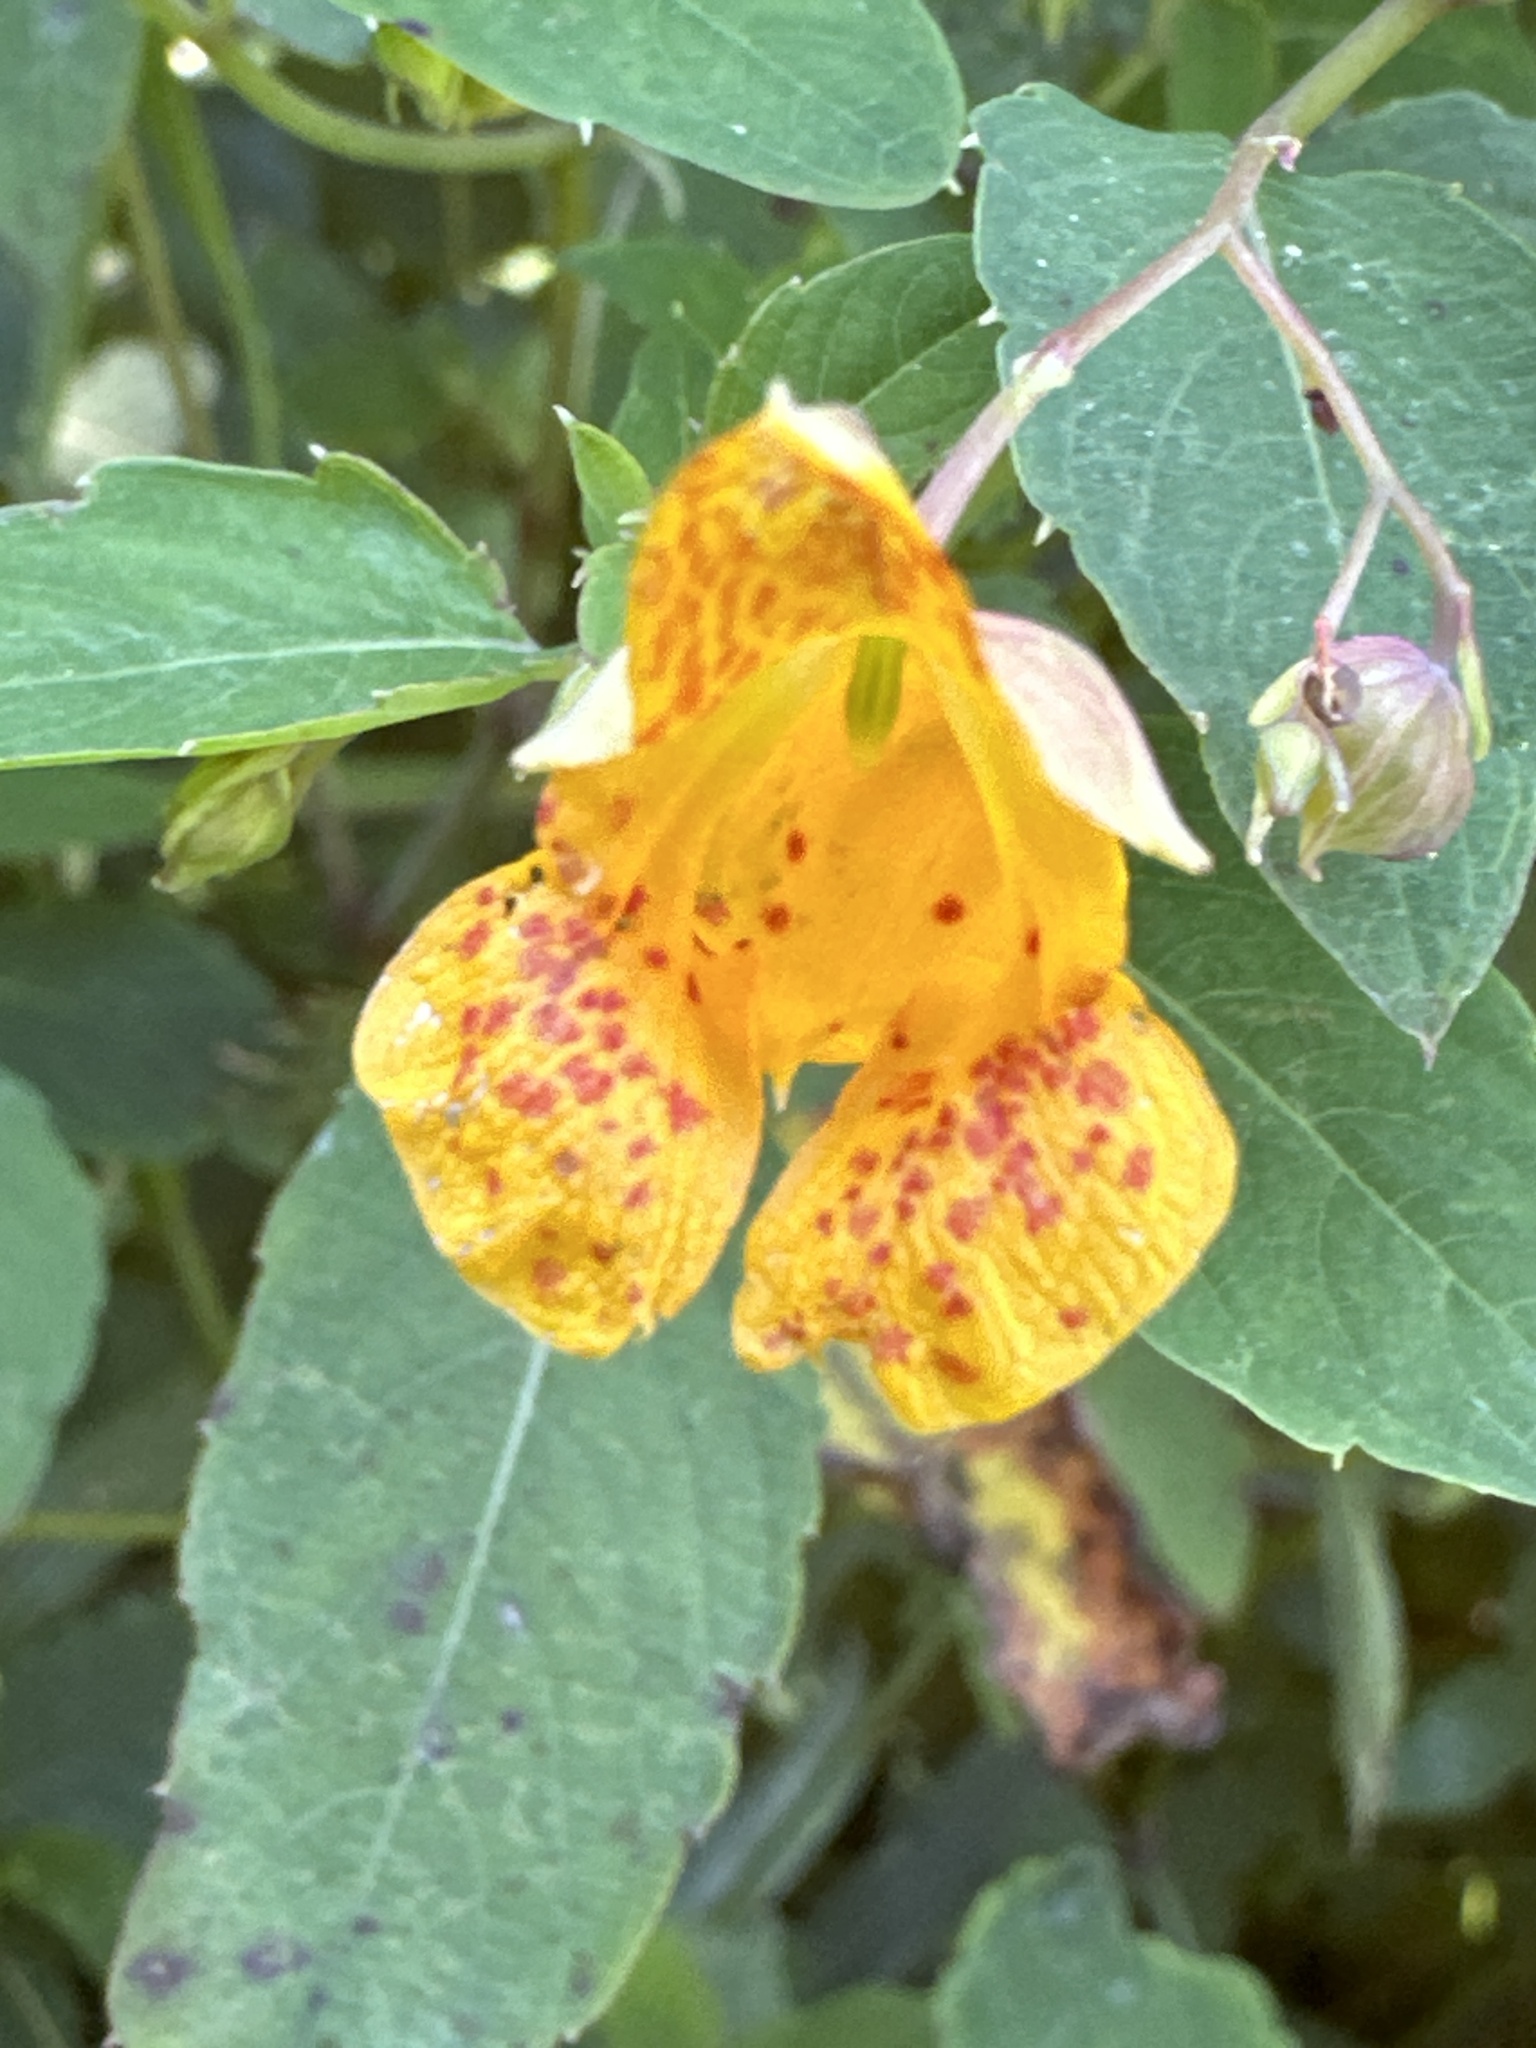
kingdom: Plantae
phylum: Tracheophyta
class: Magnoliopsida
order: Ericales
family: Balsaminaceae
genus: Impatiens
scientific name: Impatiens capensis
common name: Orange balsam
